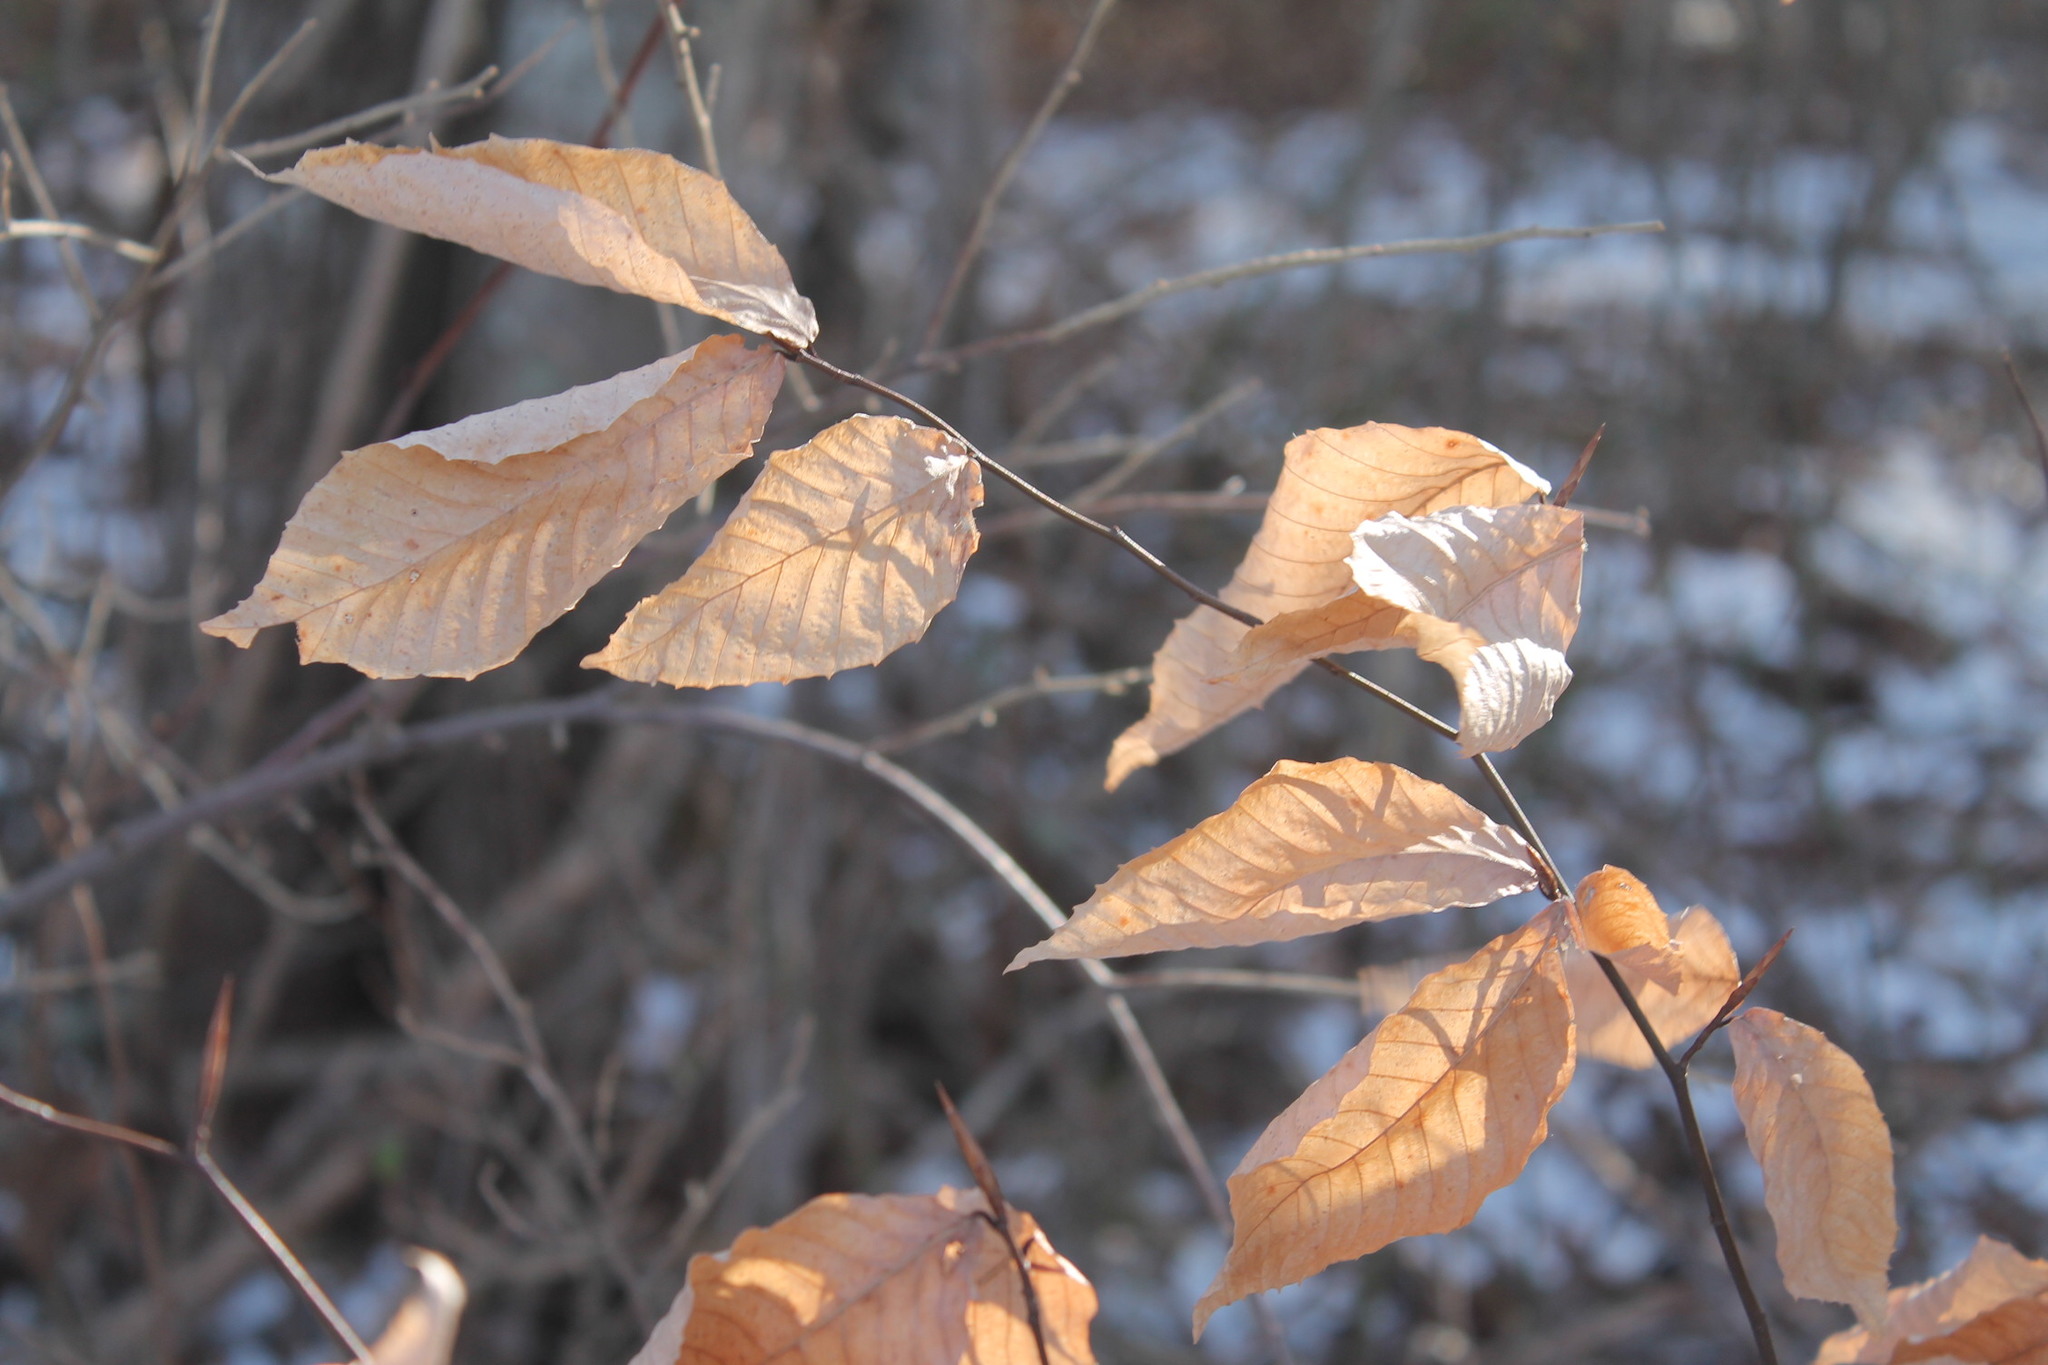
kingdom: Plantae
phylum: Tracheophyta
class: Magnoliopsida
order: Fagales
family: Fagaceae
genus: Fagus
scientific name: Fagus grandifolia
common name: American beech
